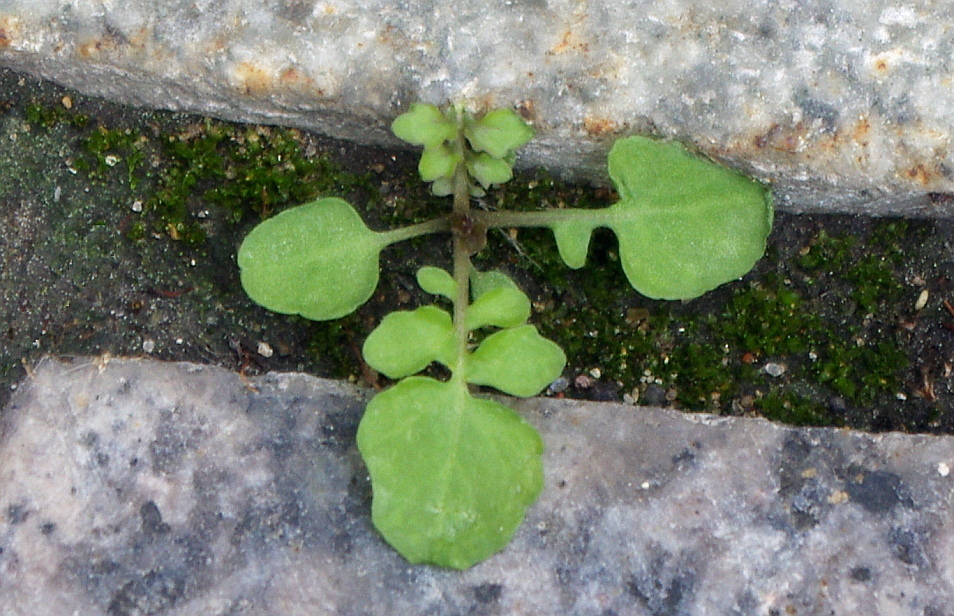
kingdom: Plantae
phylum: Tracheophyta
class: Magnoliopsida
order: Brassicales
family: Brassicaceae
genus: Rorippa
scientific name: Rorippa palustris
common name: Marsh yellow-cress
